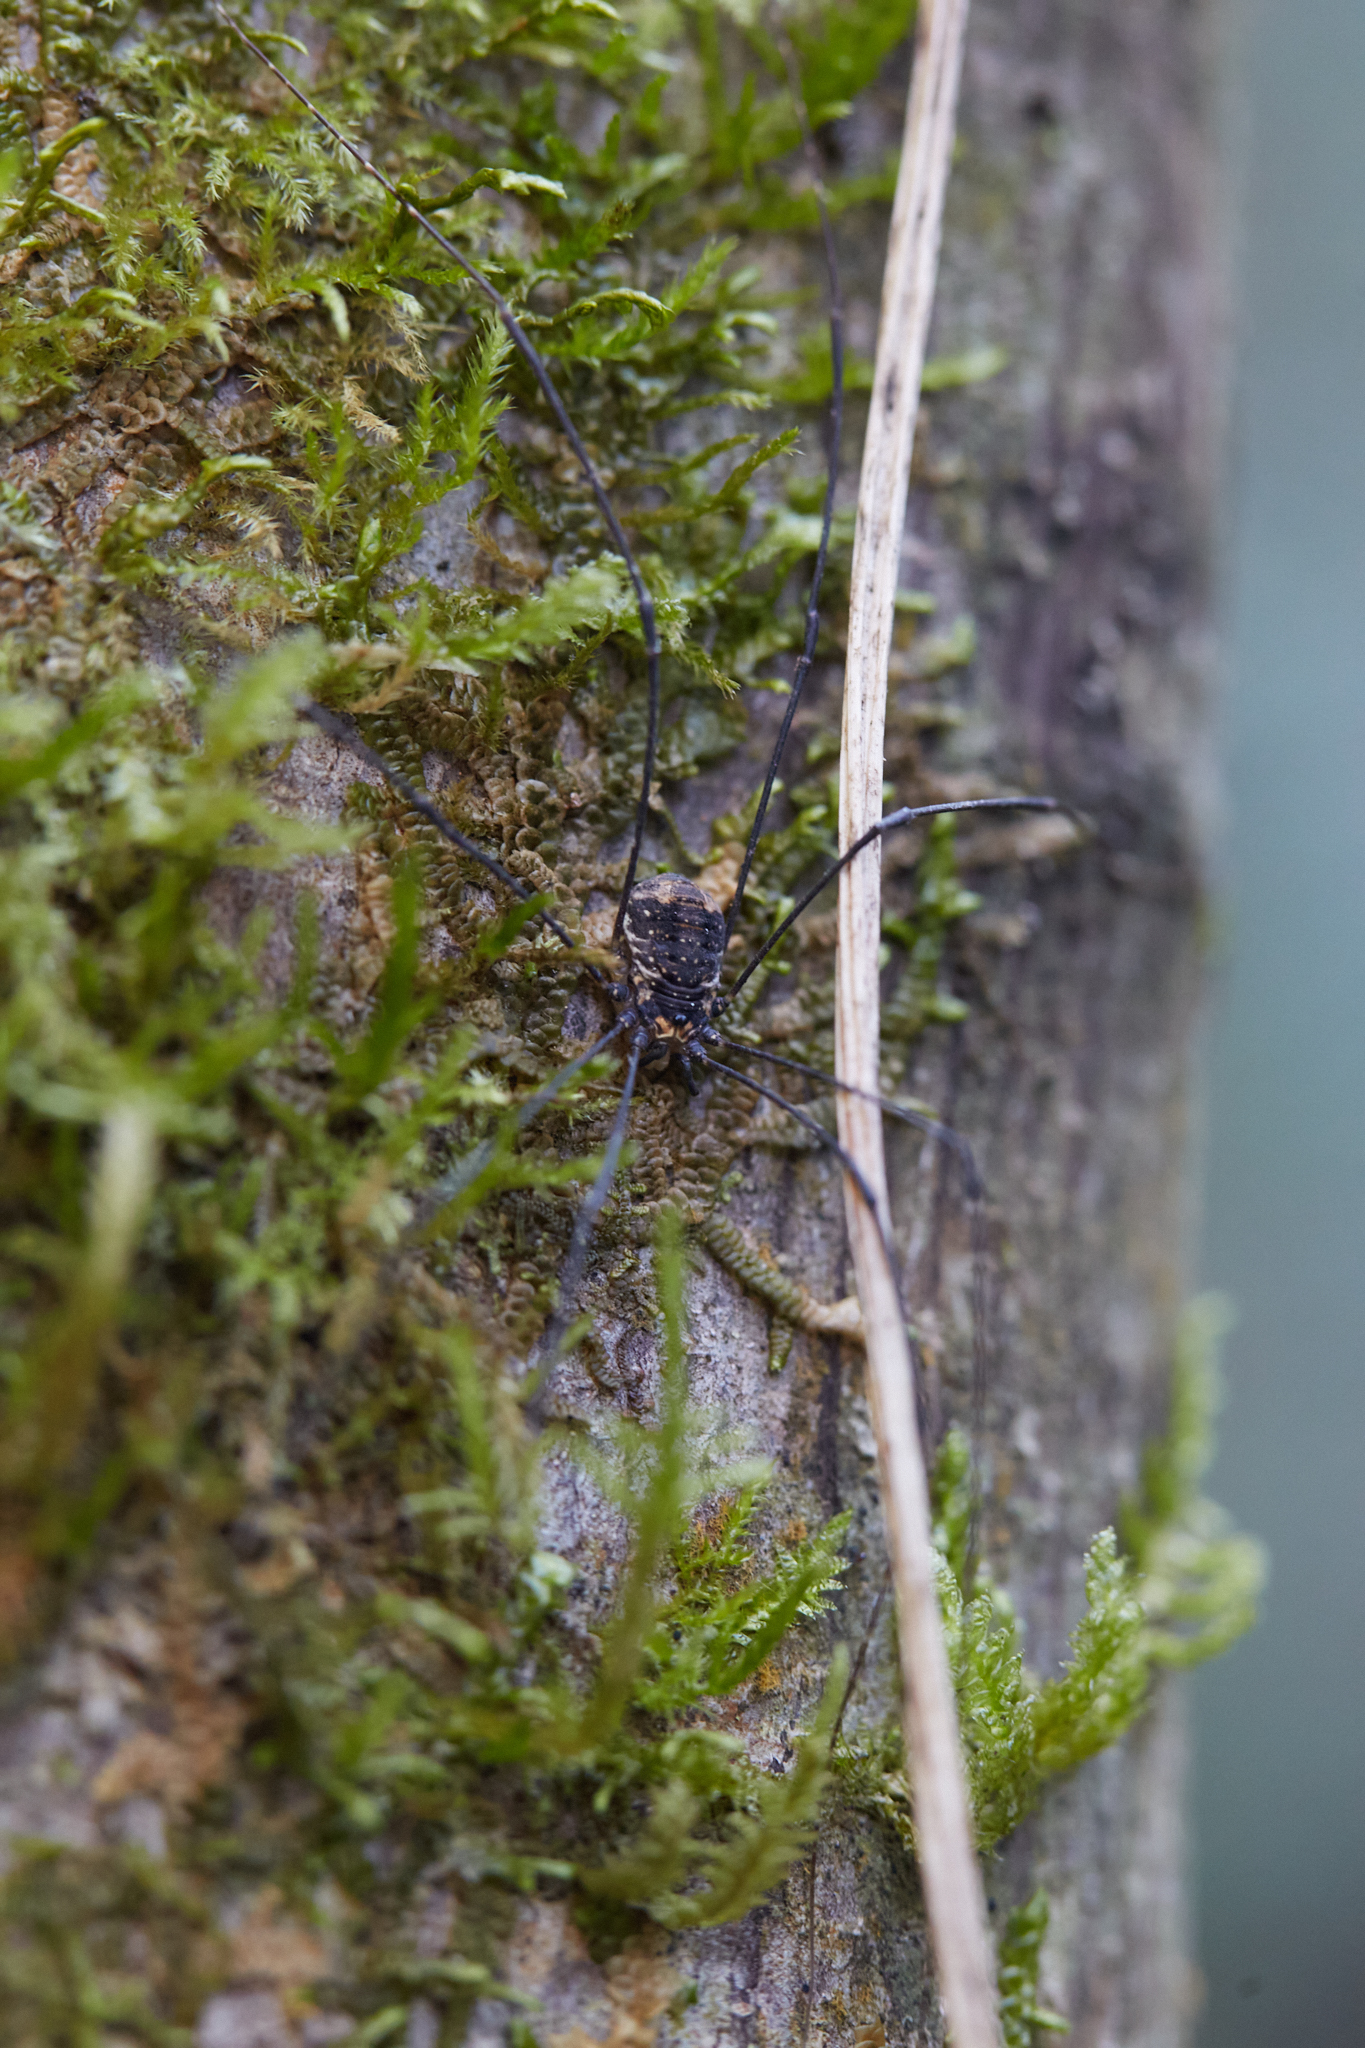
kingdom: Animalia
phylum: Arthropoda
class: Arachnida
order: Opiliones
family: Sclerosomatidae
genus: Leiobunum
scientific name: Leiobunum exilipes
